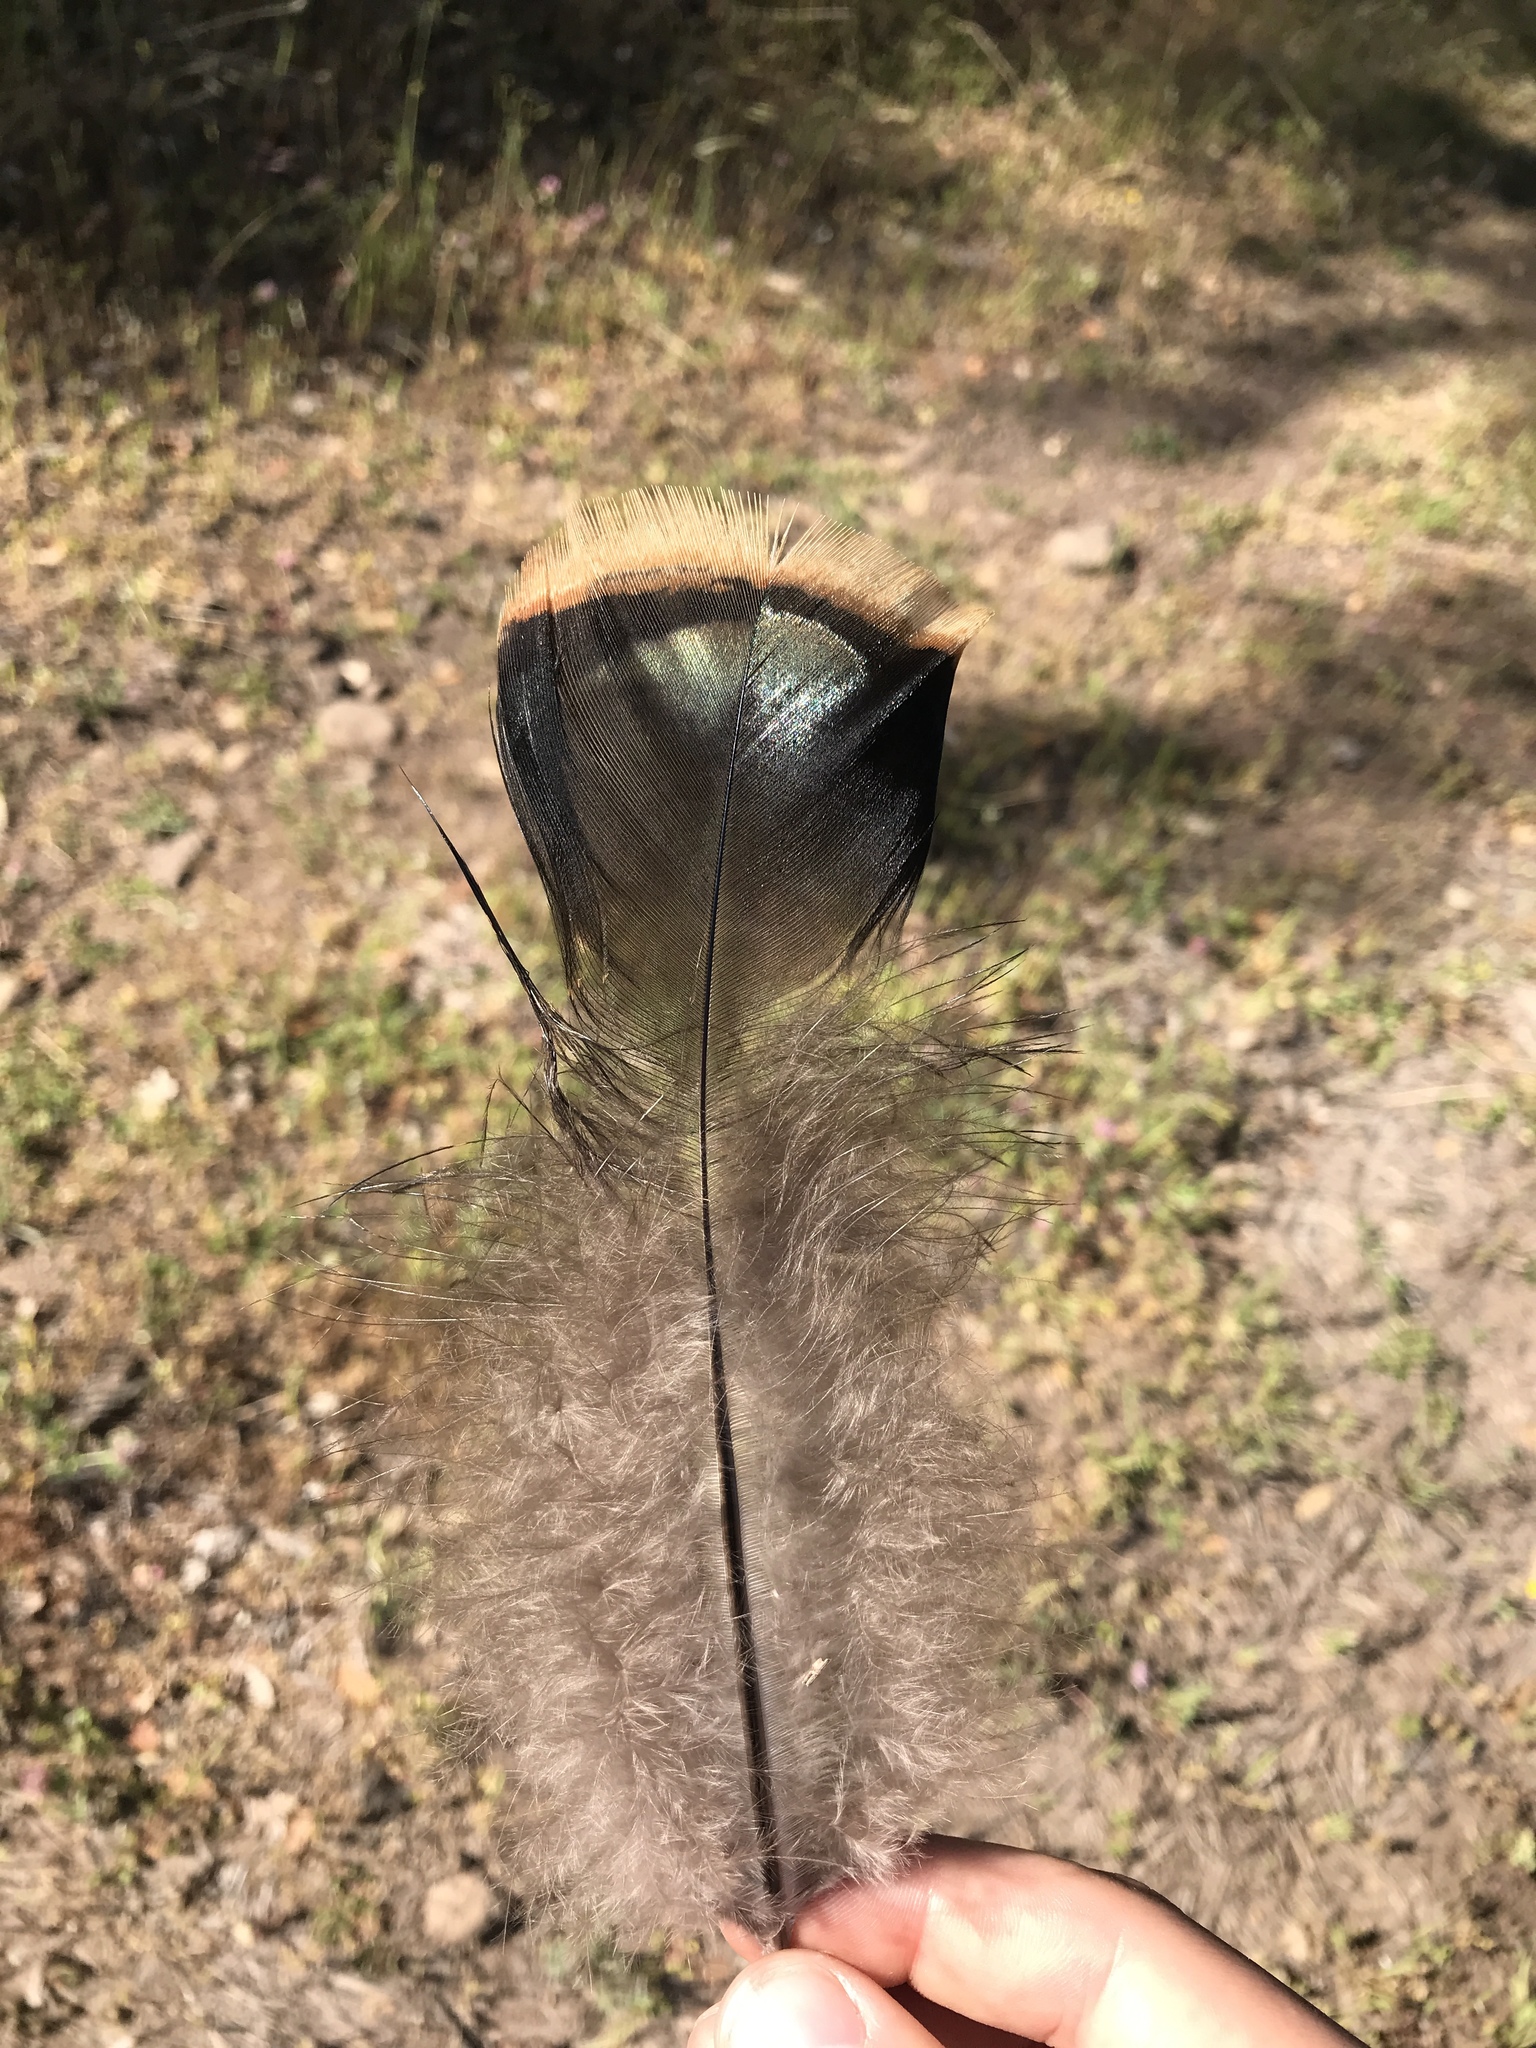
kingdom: Animalia
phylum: Chordata
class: Aves
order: Galliformes
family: Phasianidae
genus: Meleagris
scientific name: Meleagris gallopavo
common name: Wild turkey
